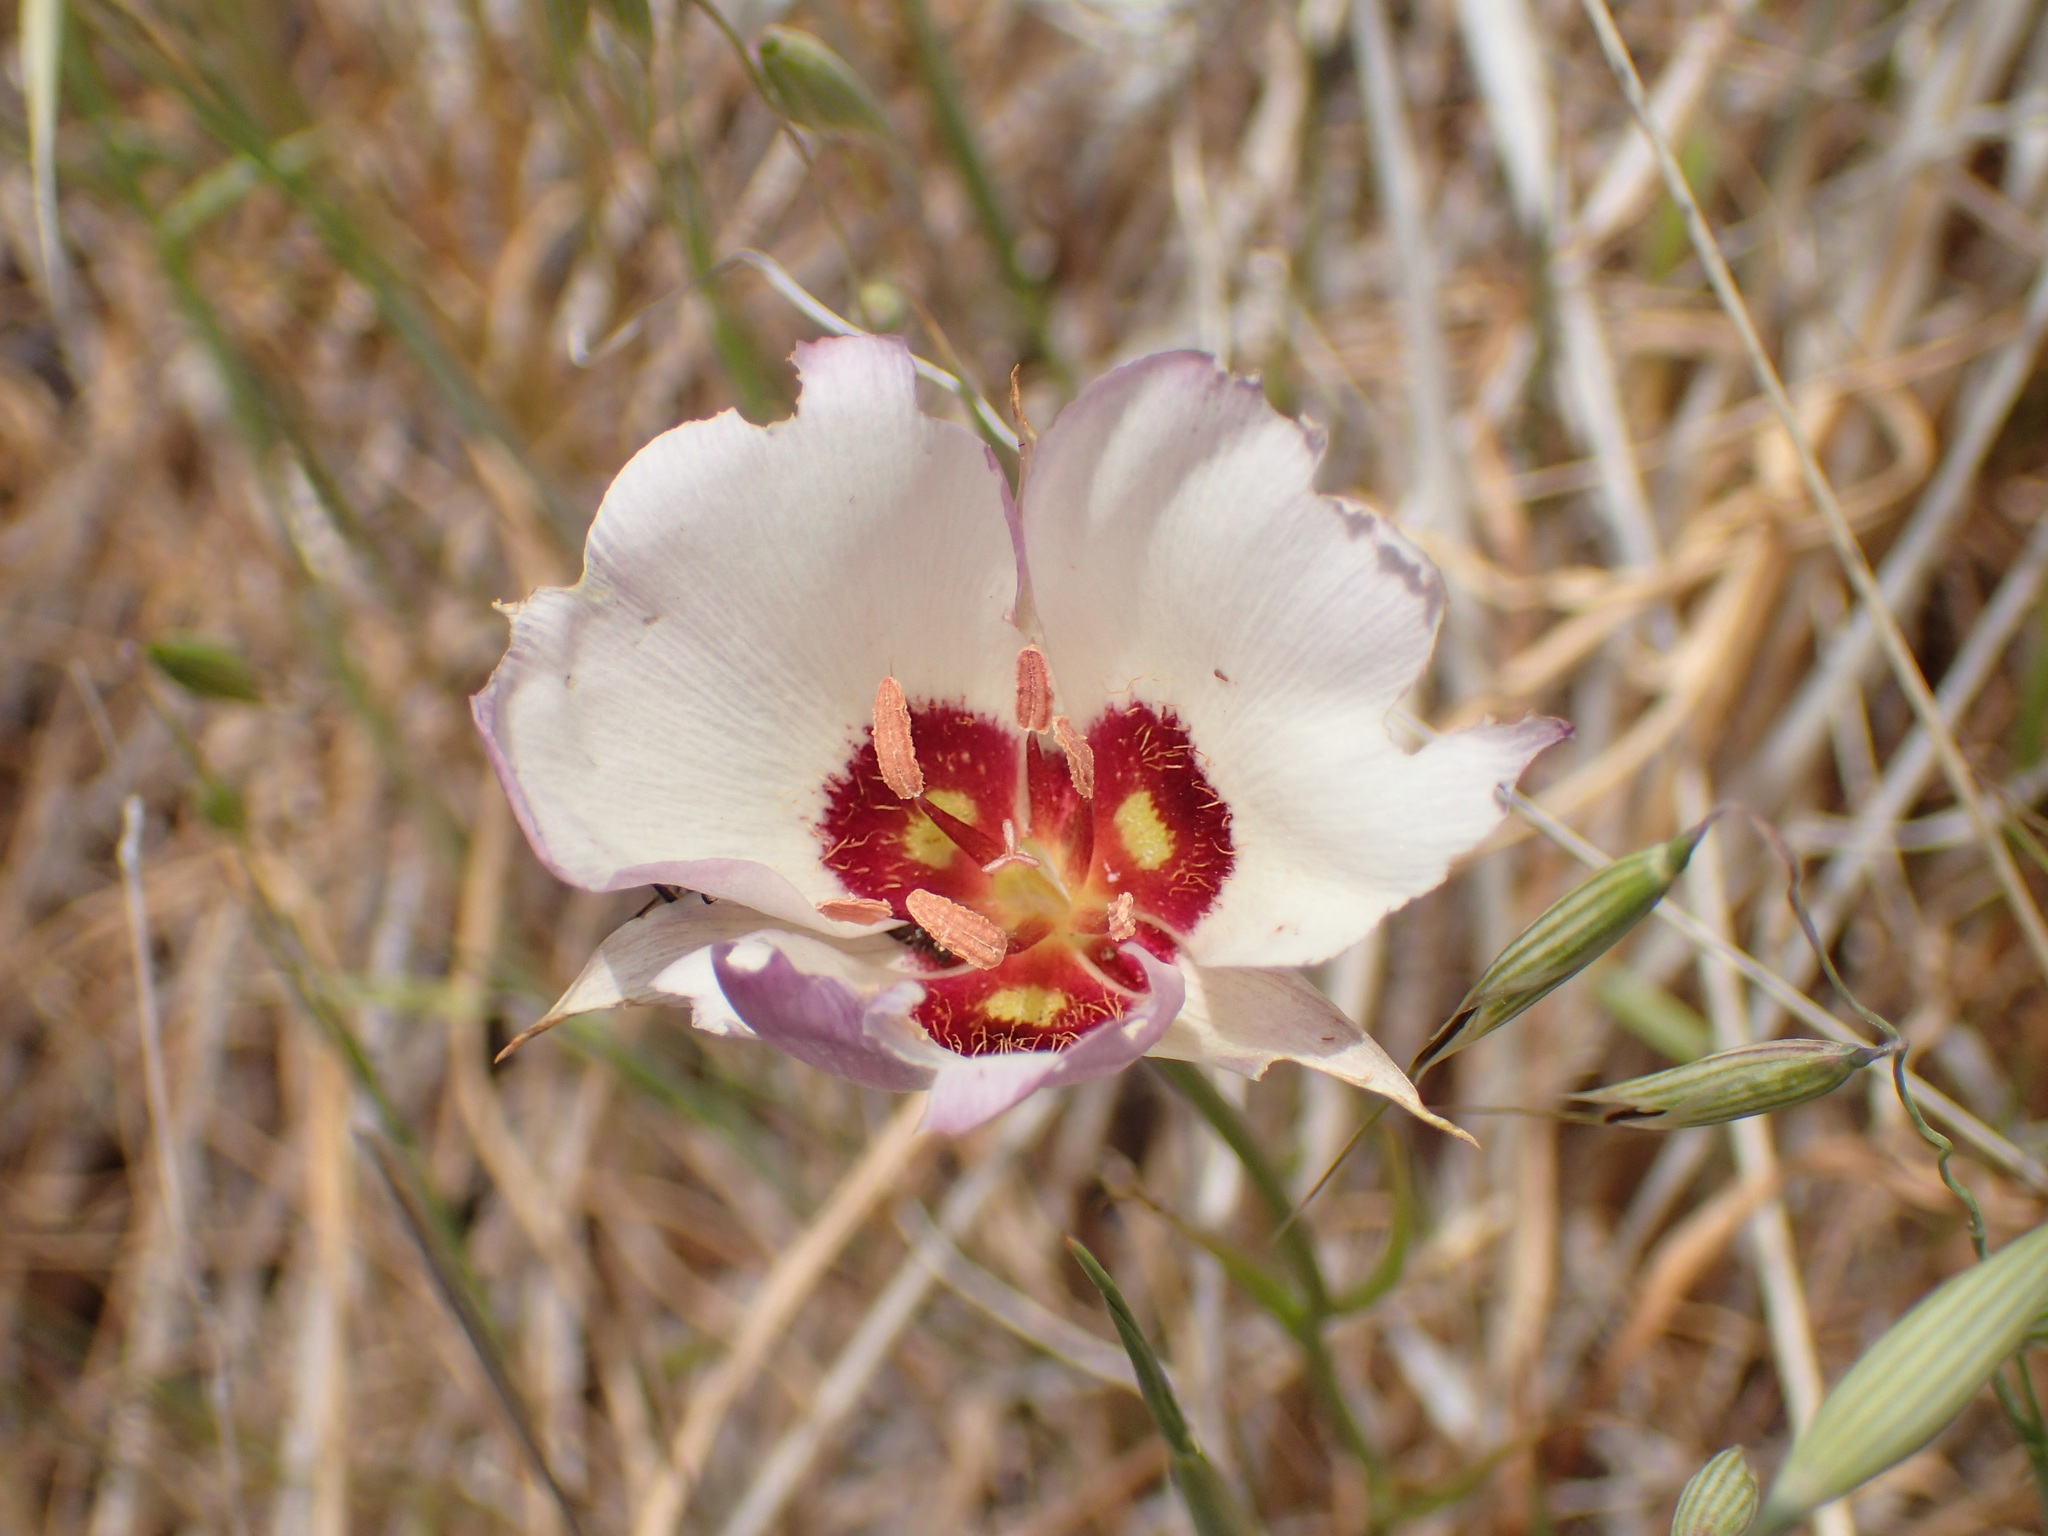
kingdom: Plantae
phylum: Tracheophyta
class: Liliopsida
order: Liliales
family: Liliaceae
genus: Calochortus
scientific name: Calochortus catalinae
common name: Catalina mariposa-lily
